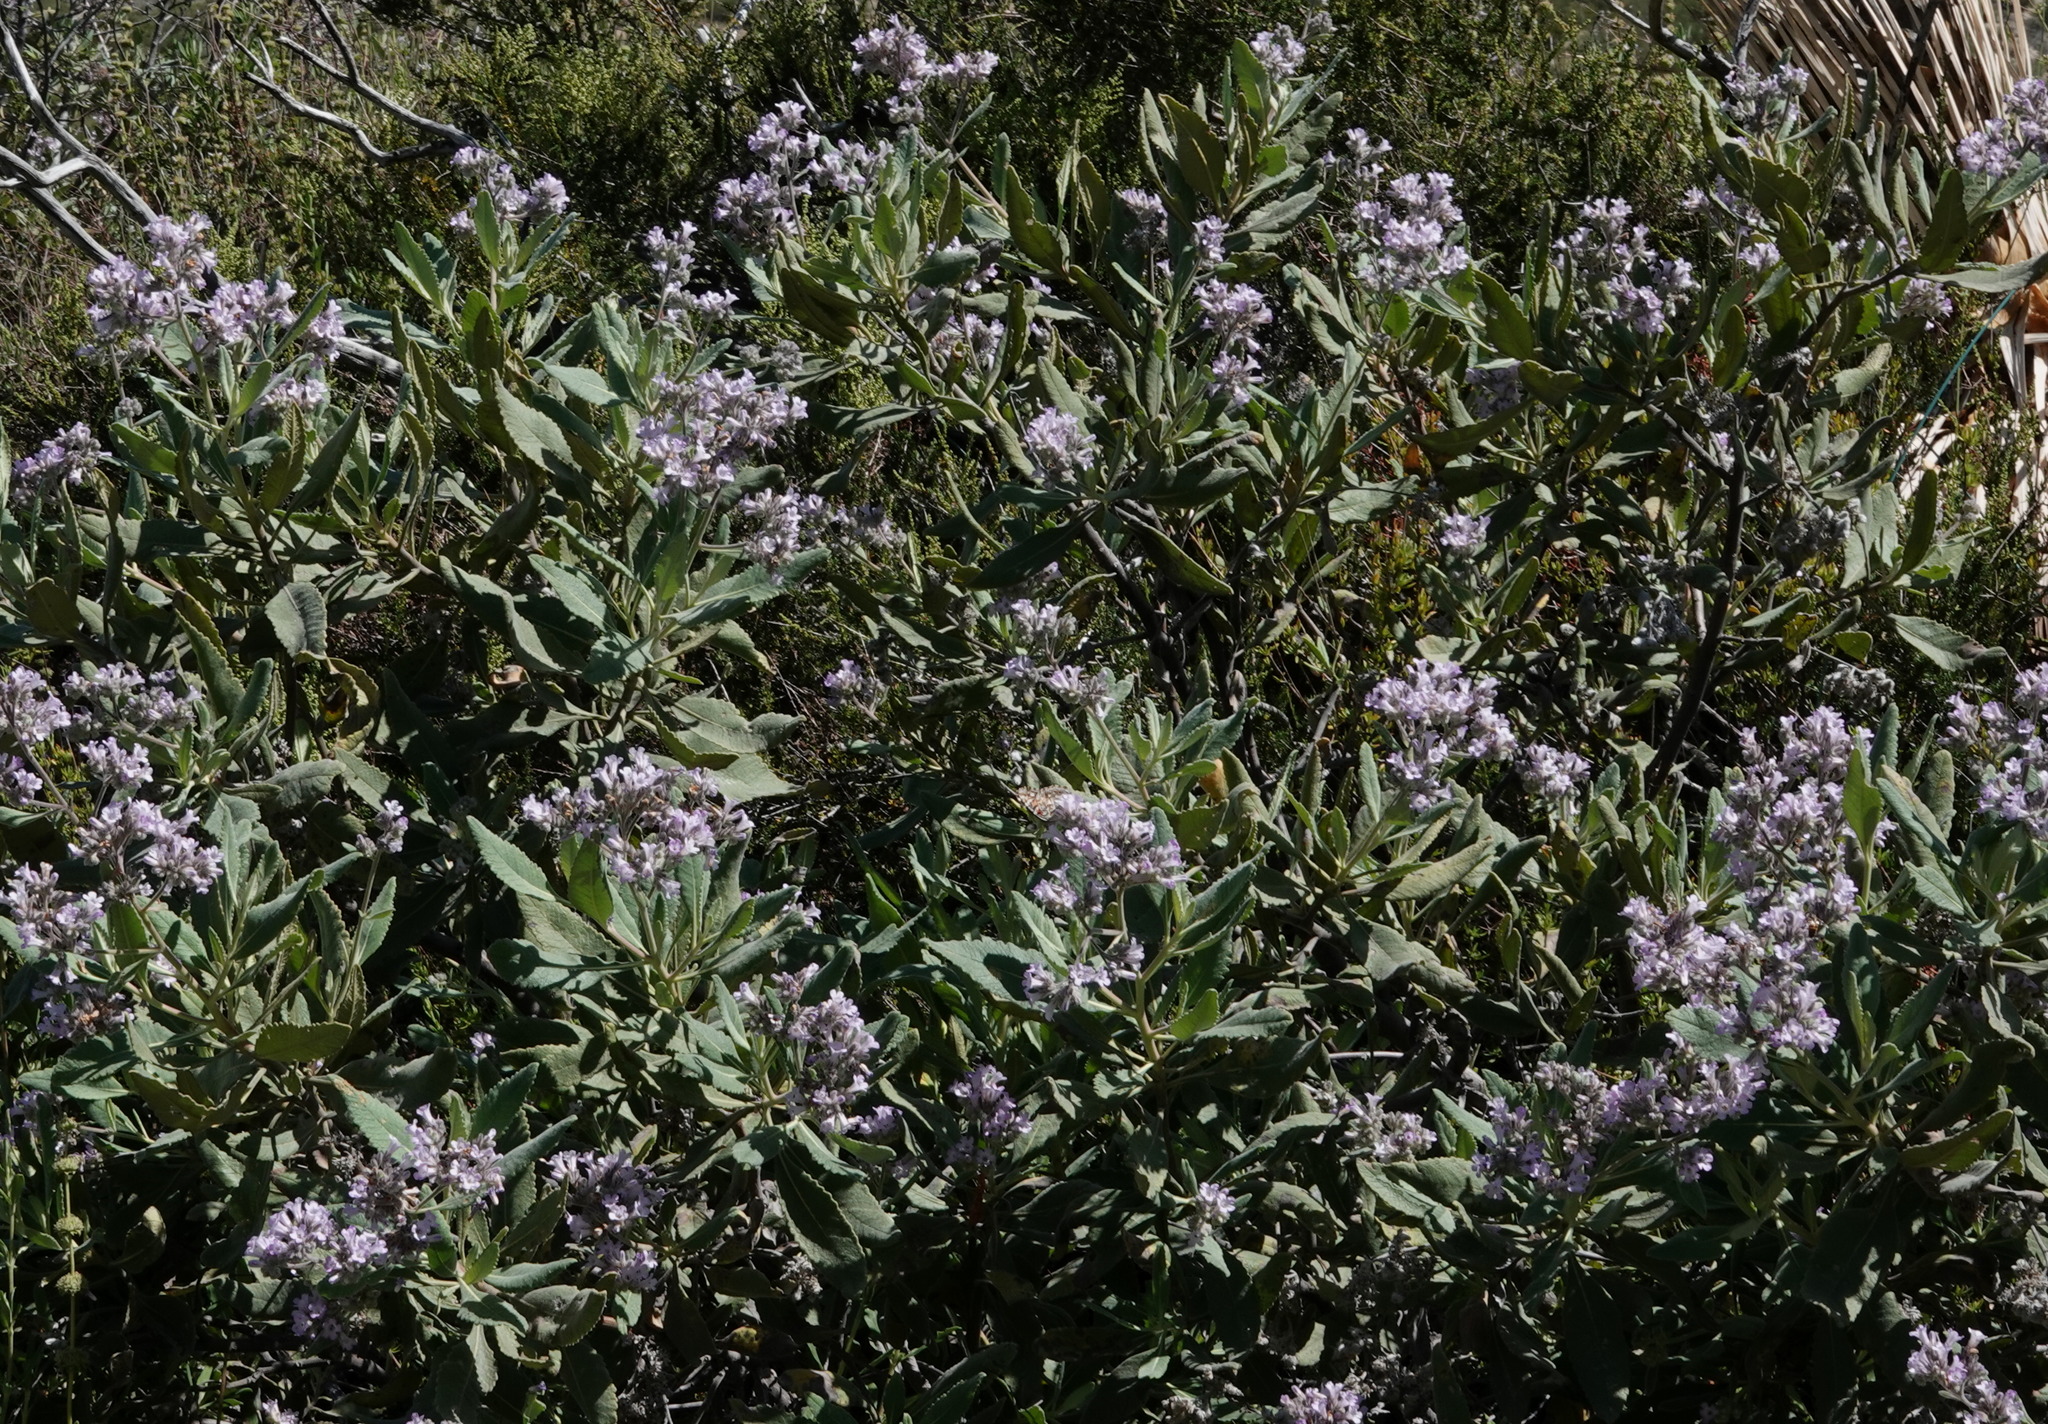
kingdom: Plantae
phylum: Tracheophyta
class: Magnoliopsida
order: Boraginales
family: Namaceae
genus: Eriodictyon
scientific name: Eriodictyon crassifolium
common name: Thick-leaf yerba-santa
